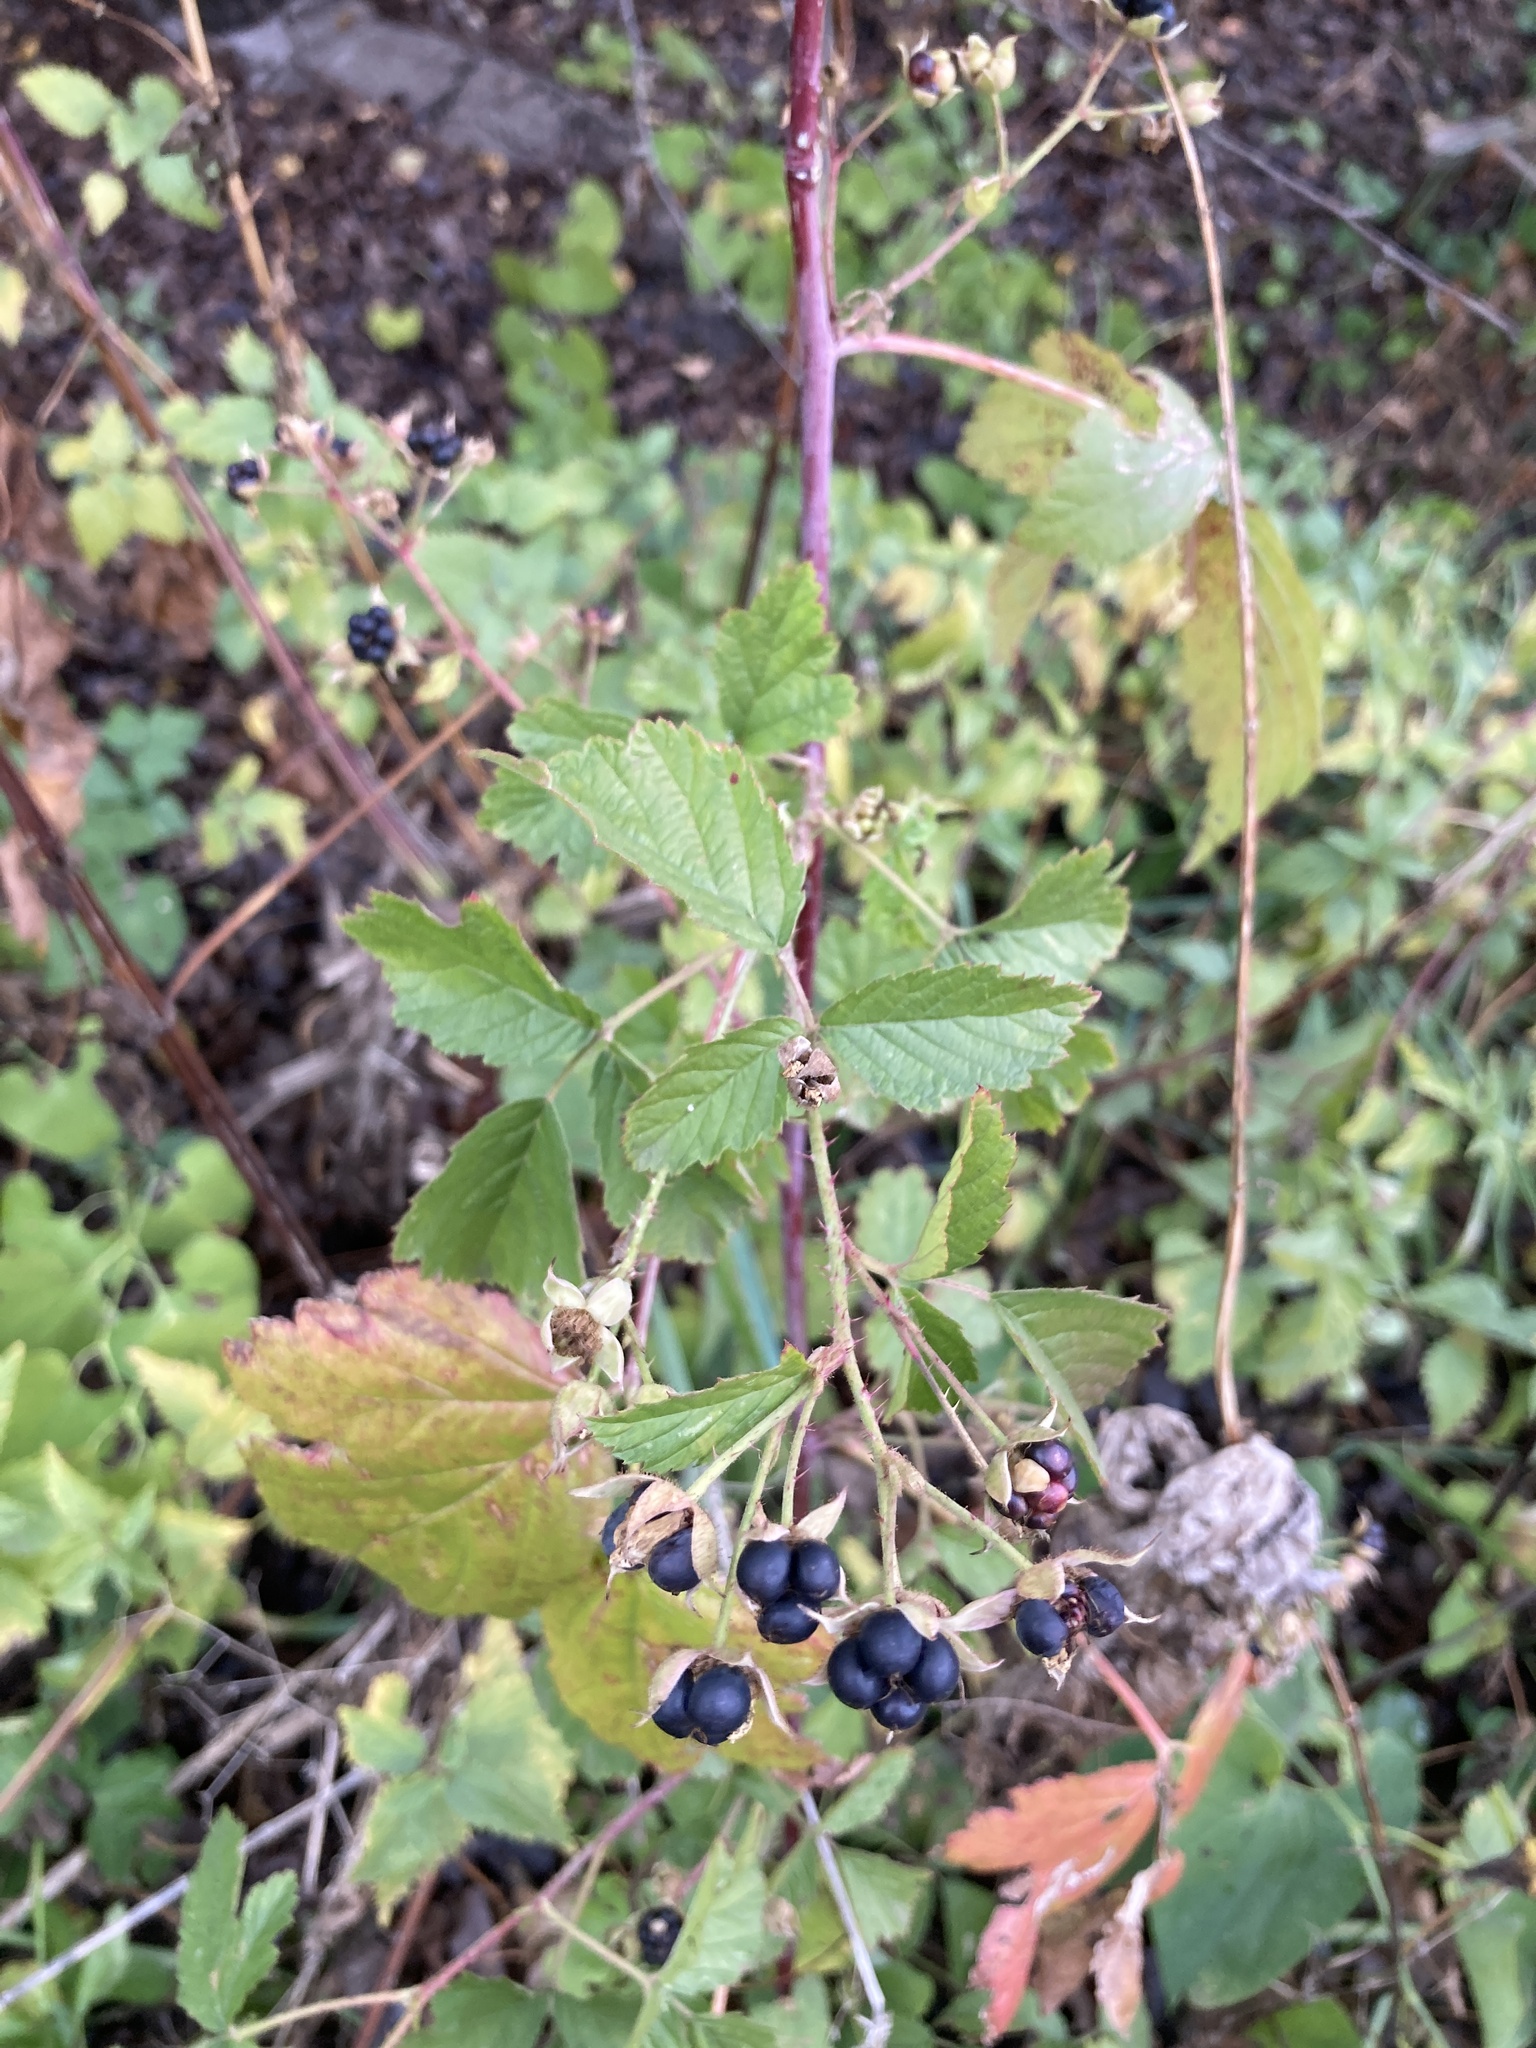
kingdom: Plantae
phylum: Tracheophyta
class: Magnoliopsida
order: Rosales
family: Rosaceae
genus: Rubus
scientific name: Rubus caesius
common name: Dewberry
